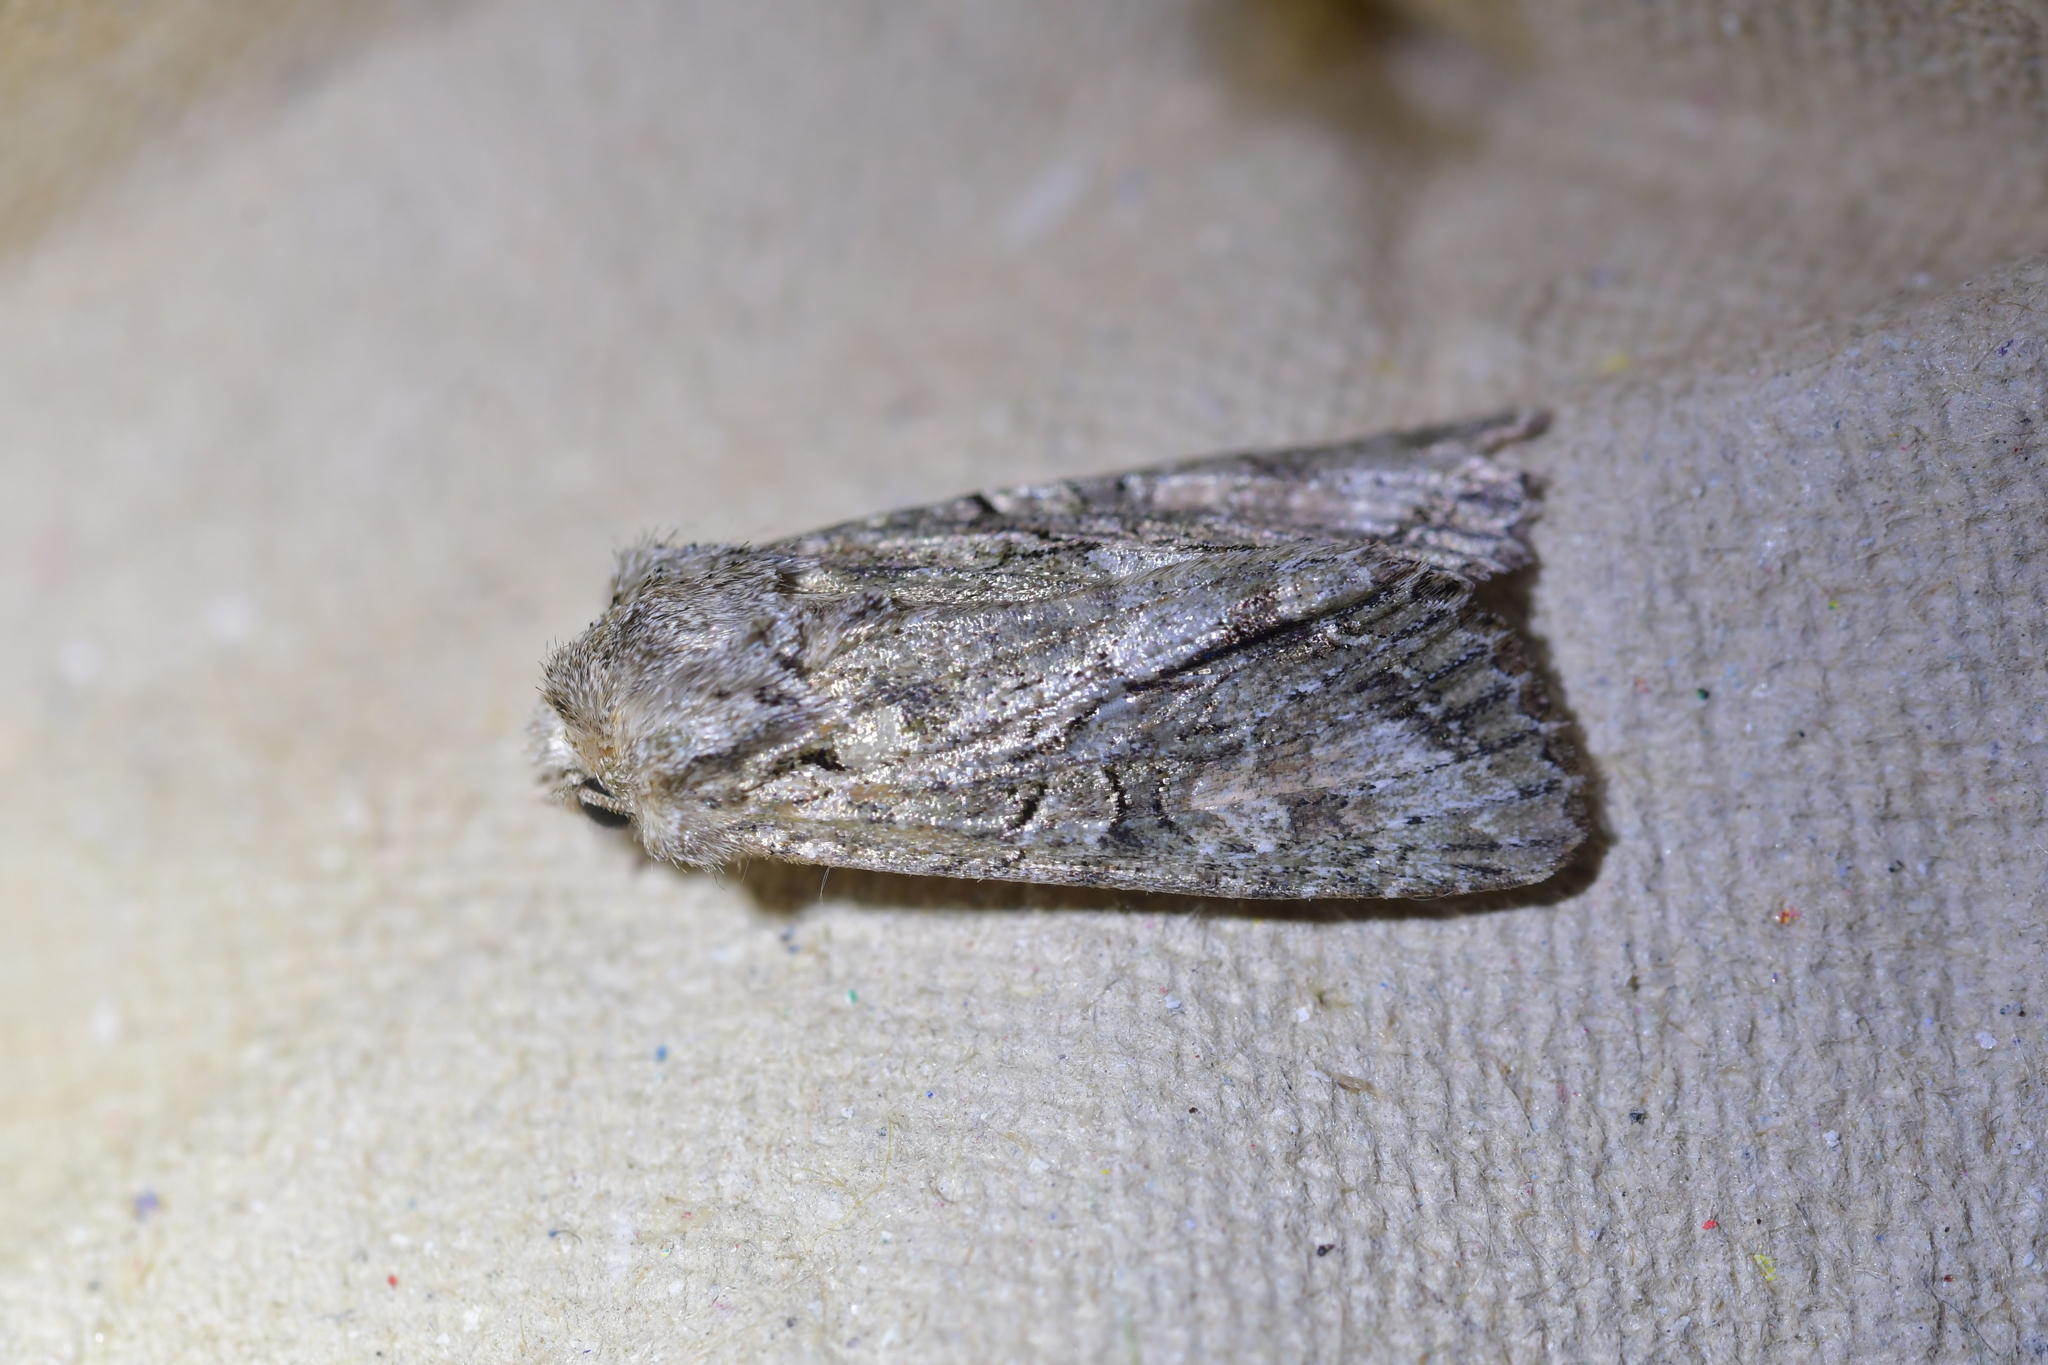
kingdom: Animalia
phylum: Arthropoda
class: Insecta
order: Lepidoptera
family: Noctuidae
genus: Ichneutica
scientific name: Ichneutica mutans
